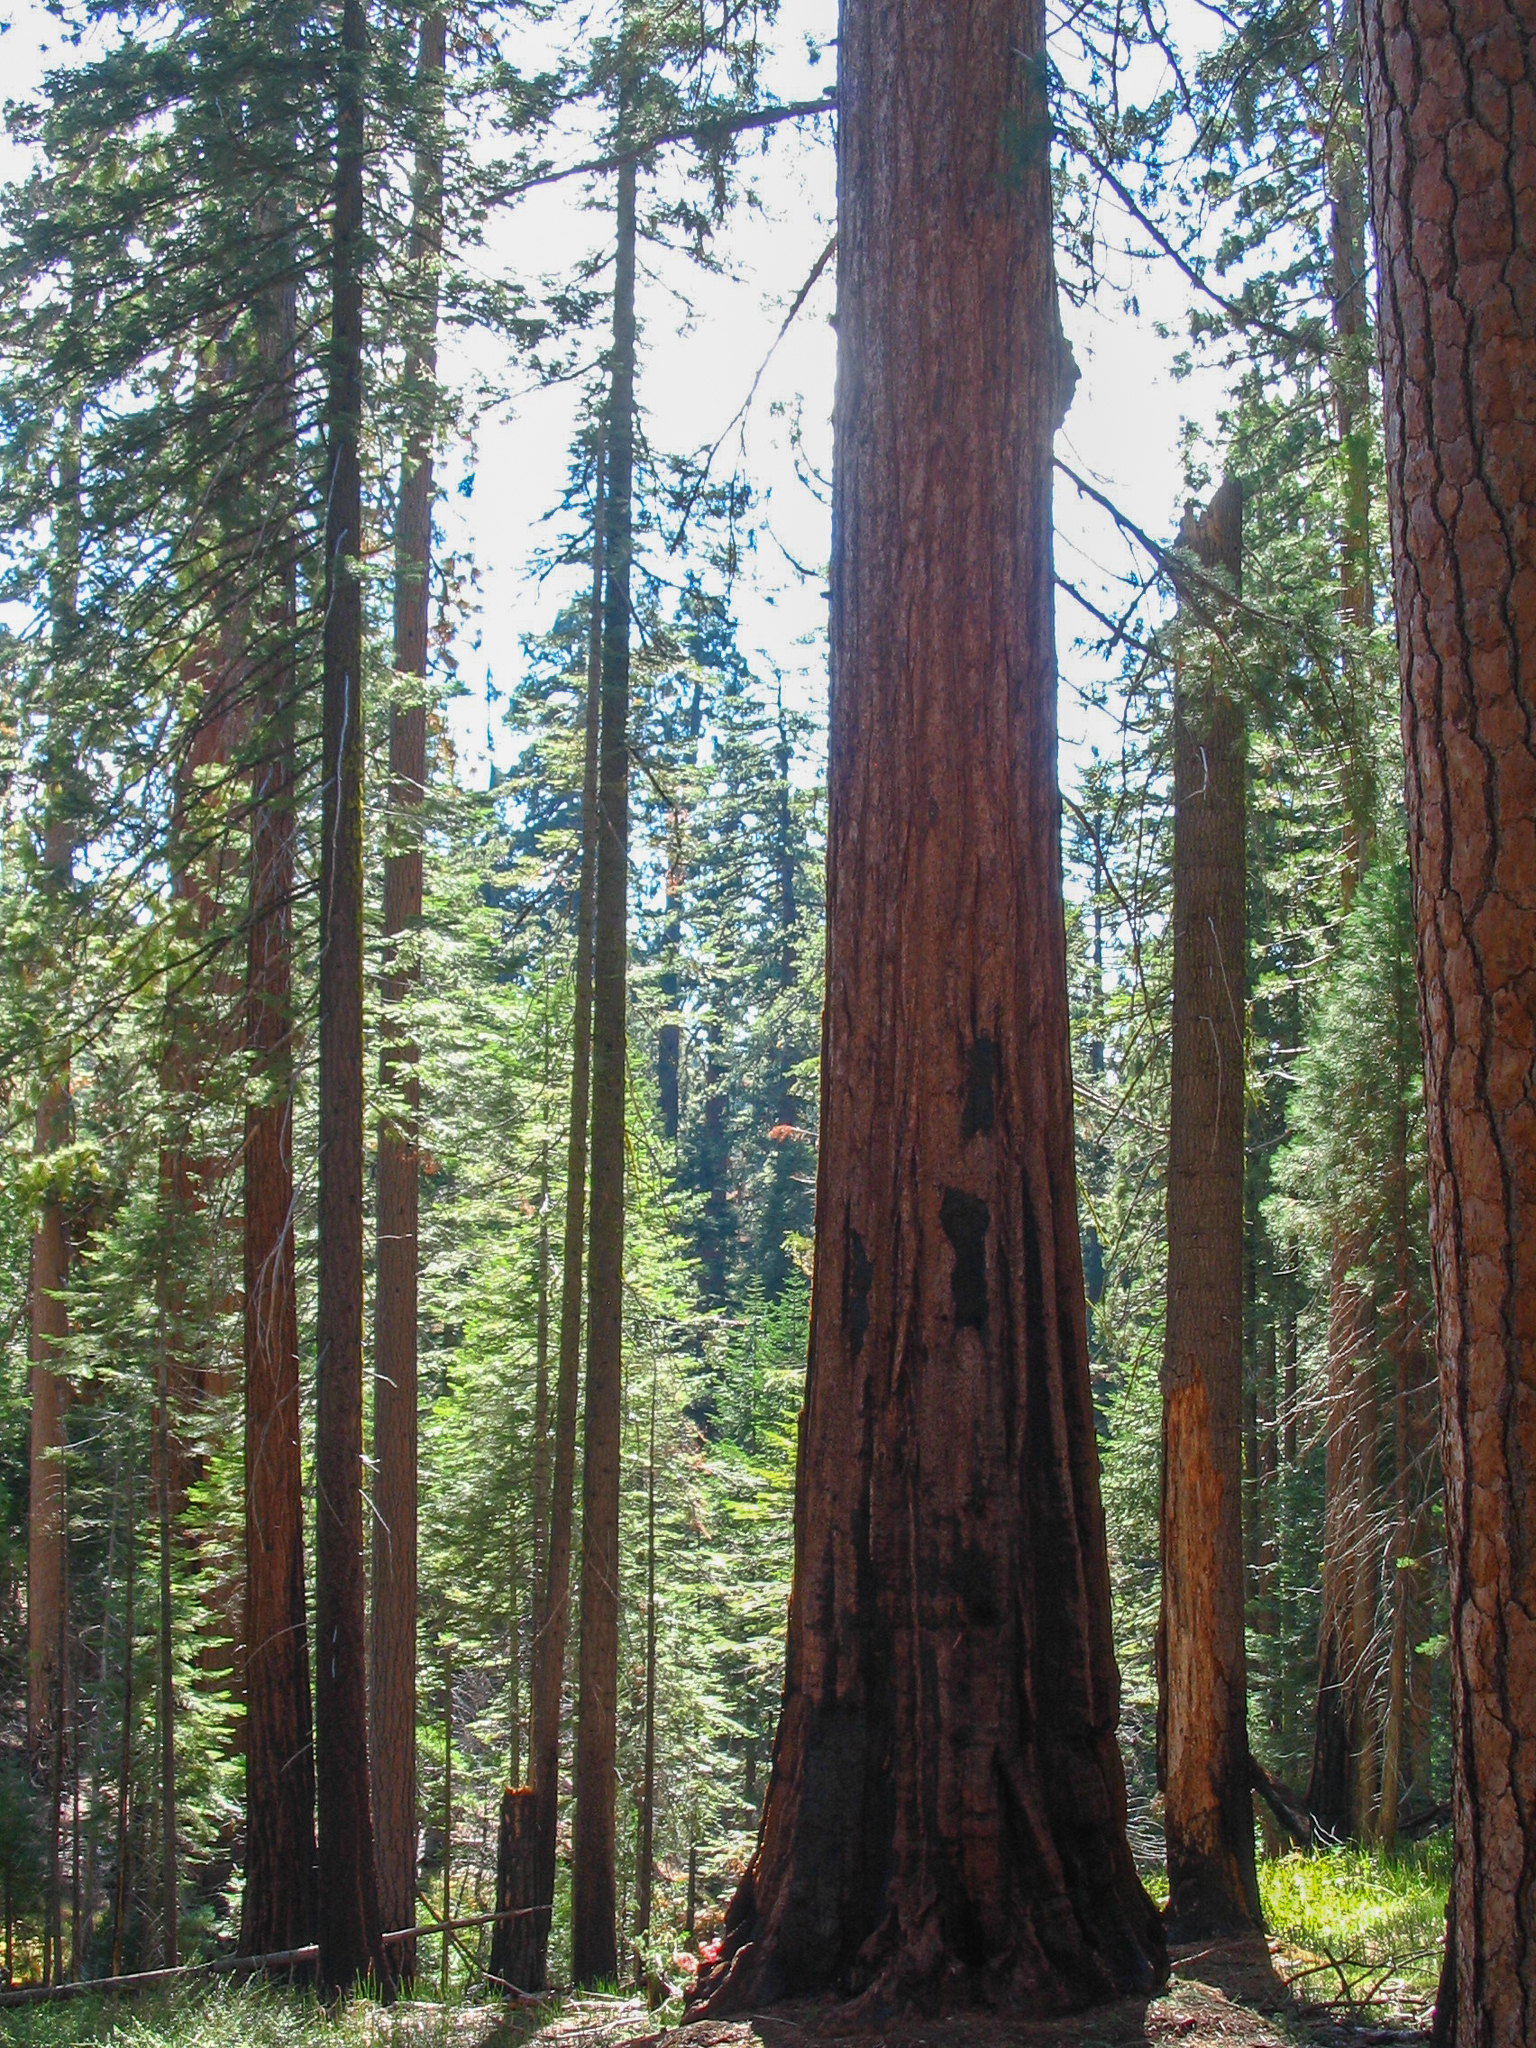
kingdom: Plantae
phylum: Tracheophyta
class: Pinopsida
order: Pinales
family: Cupressaceae
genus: Sequoiadendron
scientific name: Sequoiadendron giganteum
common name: Wellingtonia
